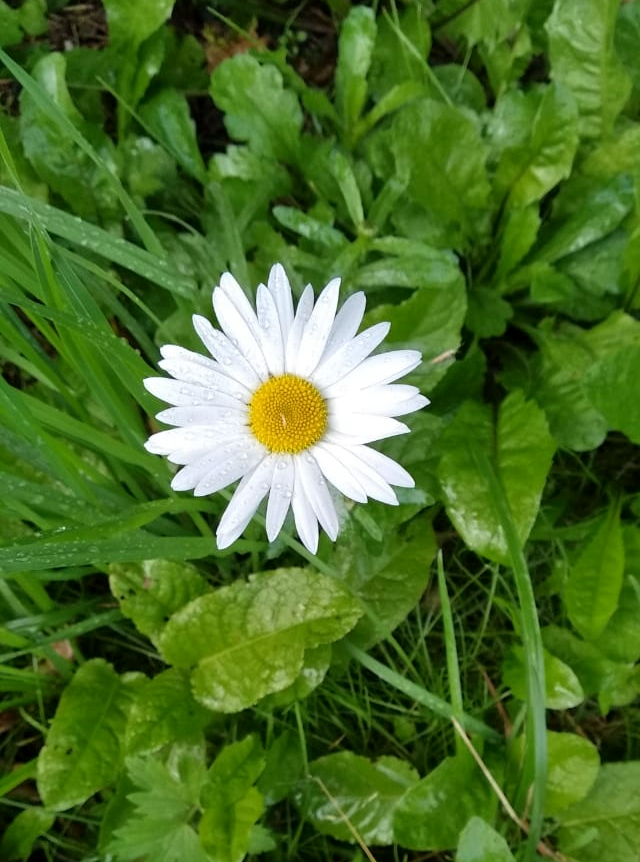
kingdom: Plantae
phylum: Tracheophyta
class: Magnoliopsida
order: Asterales
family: Asteraceae
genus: Leucanthemum
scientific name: Leucanthemum vulgare
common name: Oxeye daisy
